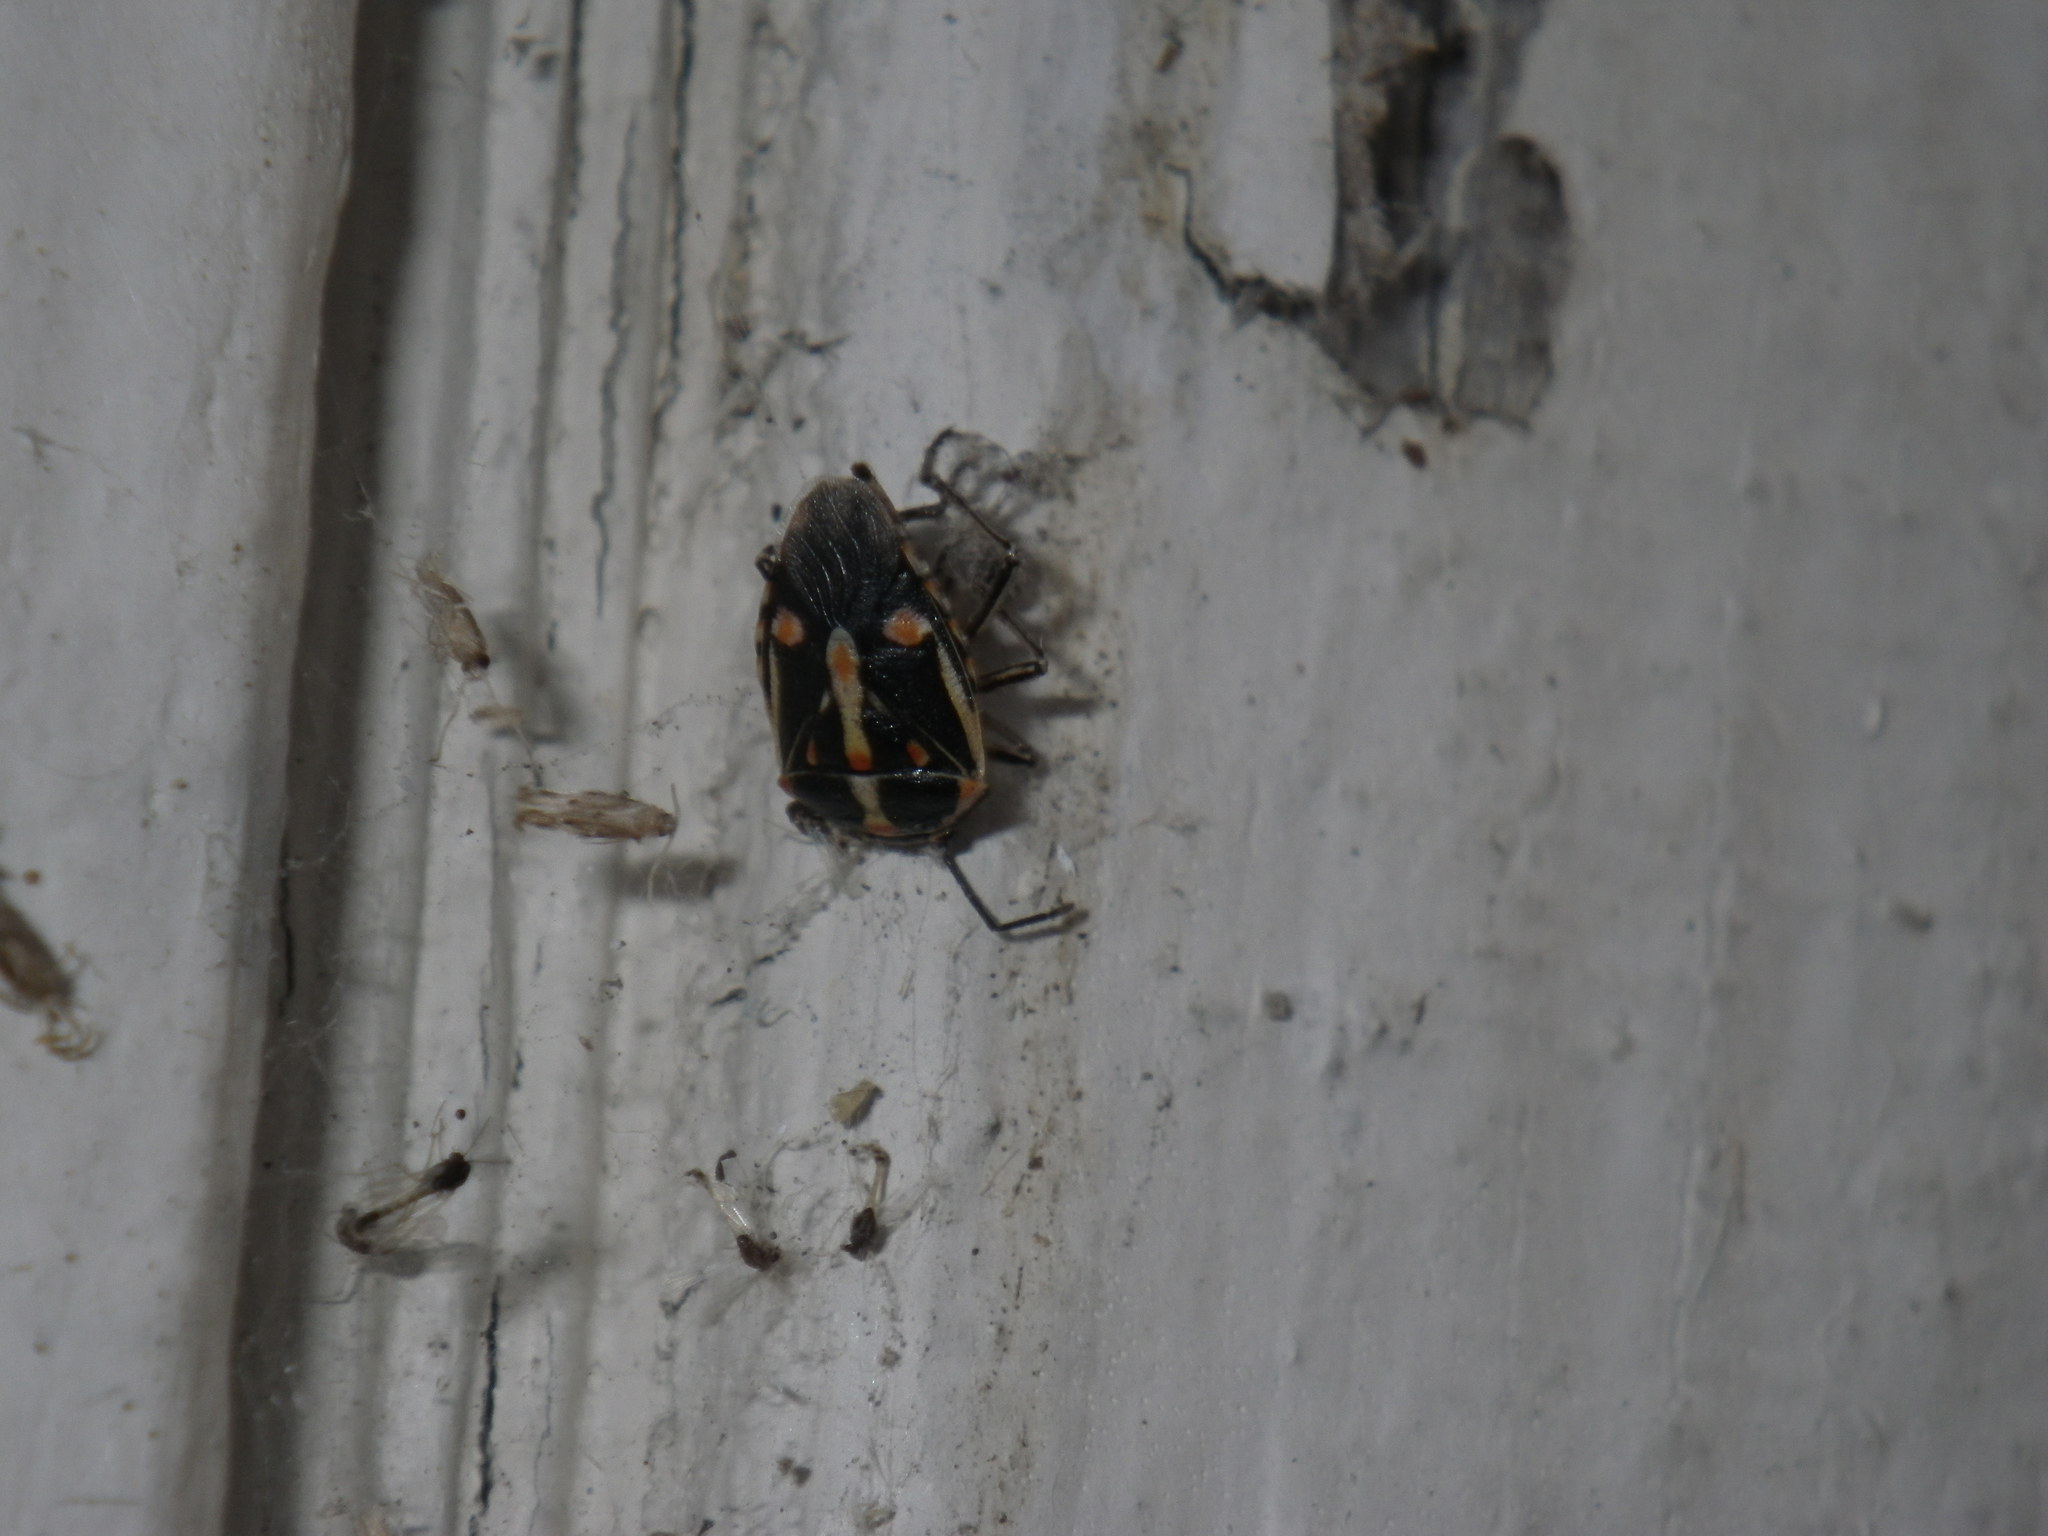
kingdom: Animalia
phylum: Arthropoda
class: Insecta
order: Hemiptera
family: Pentatomidae
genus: Bagrada
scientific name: Bagrada hilaris
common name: Bagrada bug
